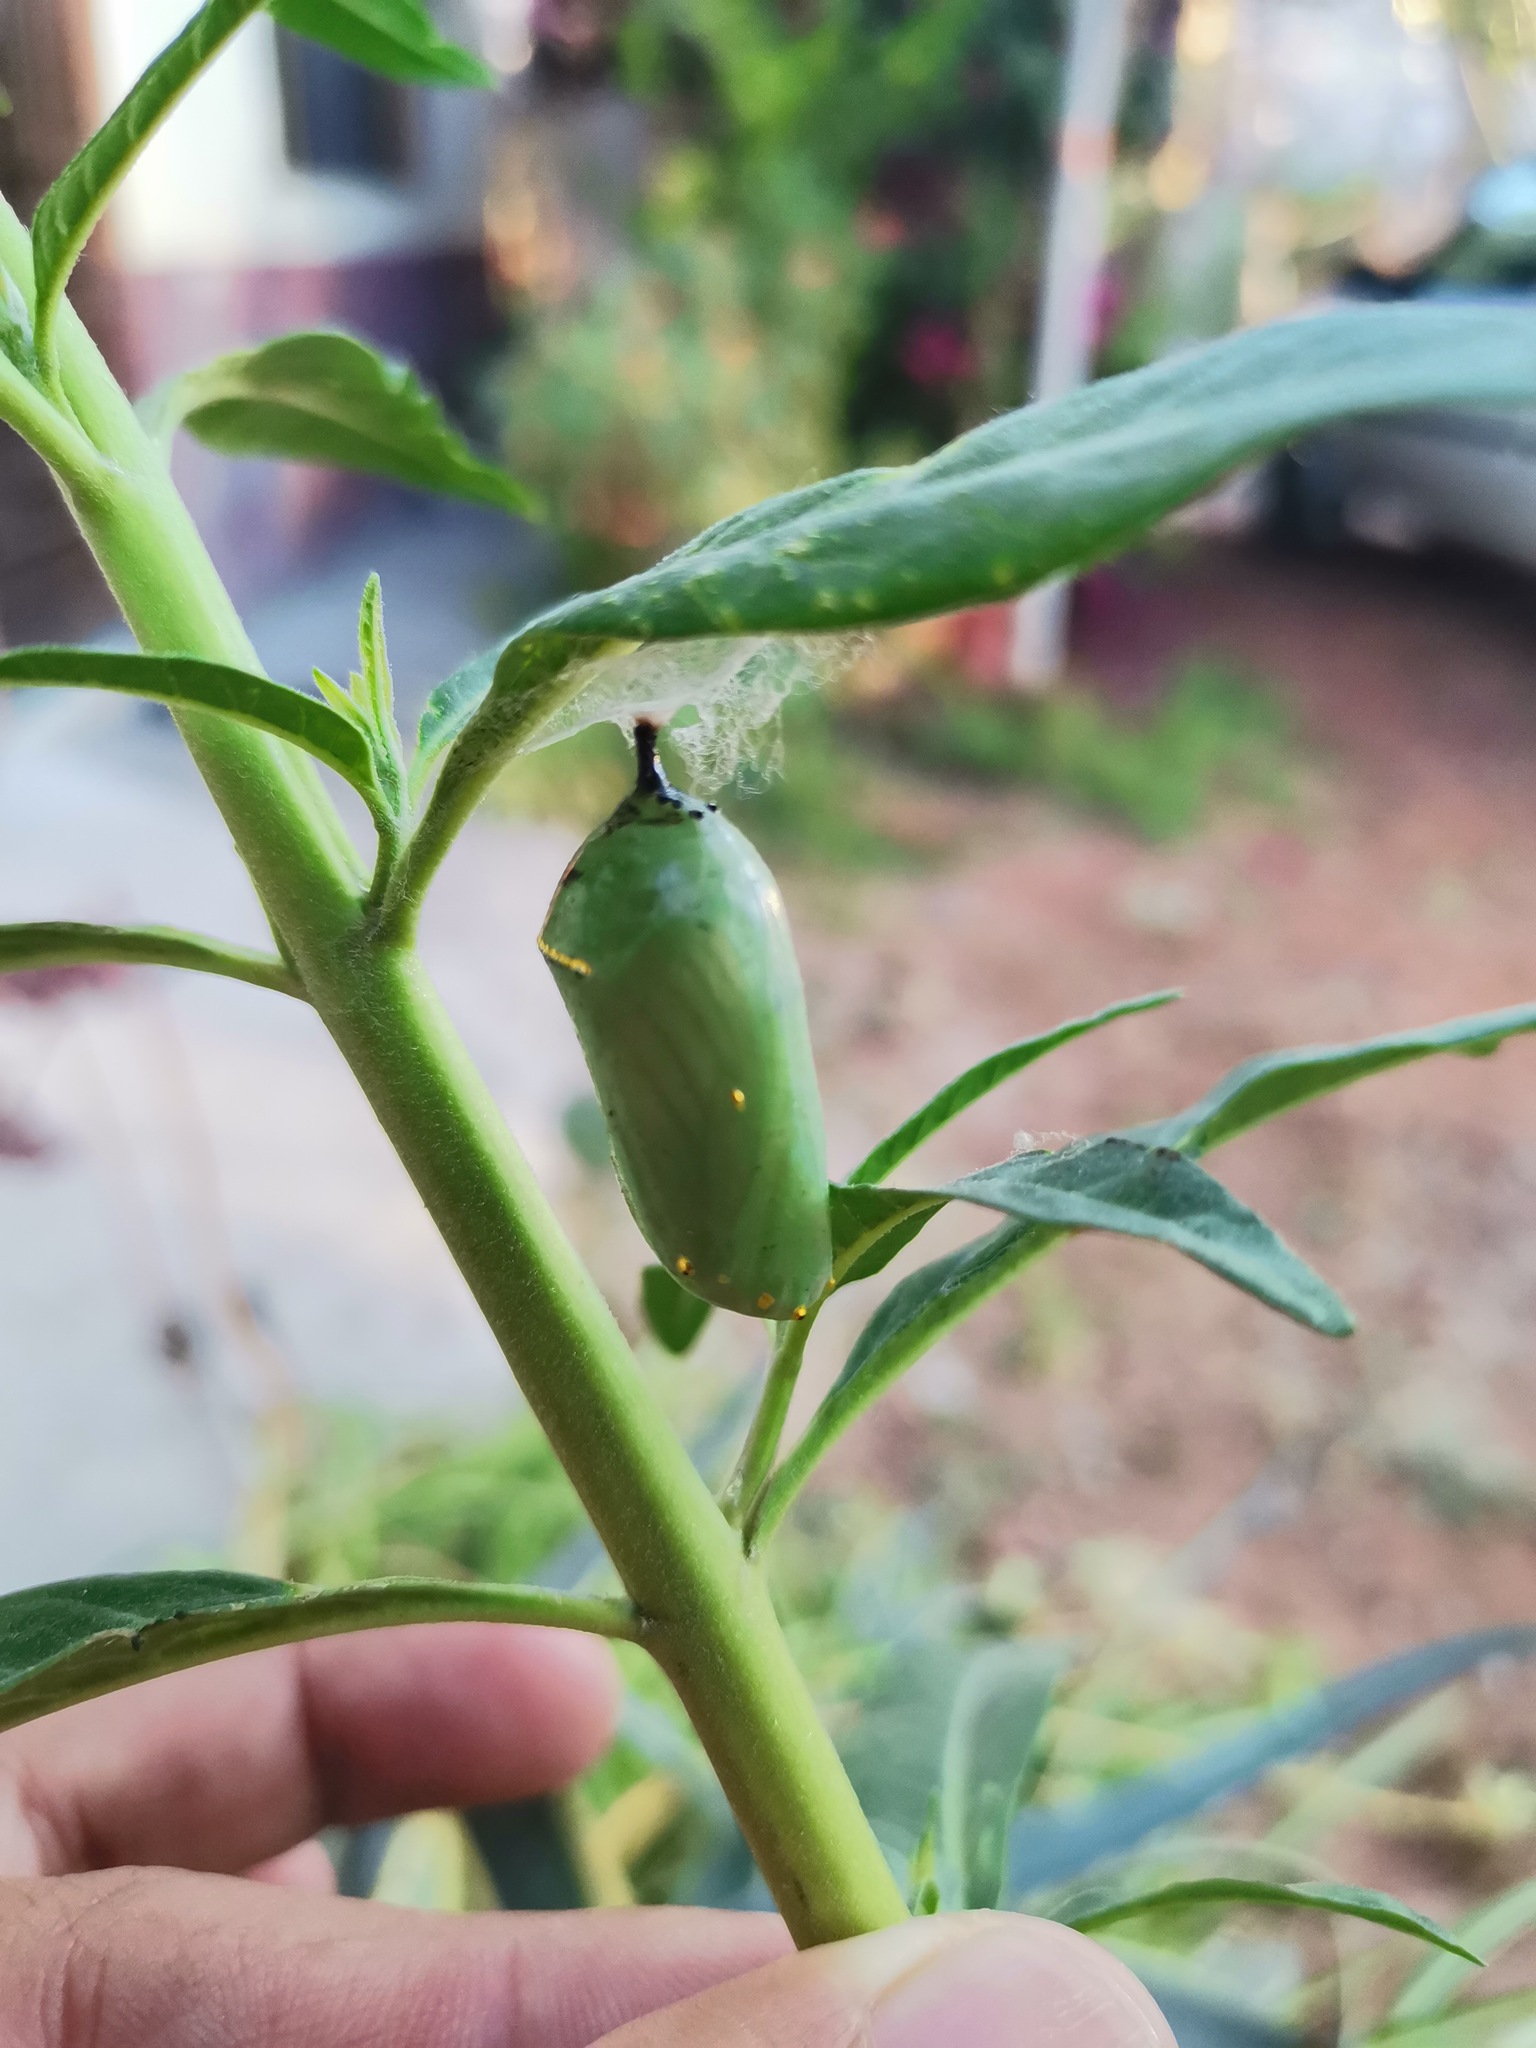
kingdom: Animalia
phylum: Arthropoda
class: Insecta
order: Lepidoptera
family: Nymphalidae
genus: Danaus
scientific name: Danaus plexippus
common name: Monarch
